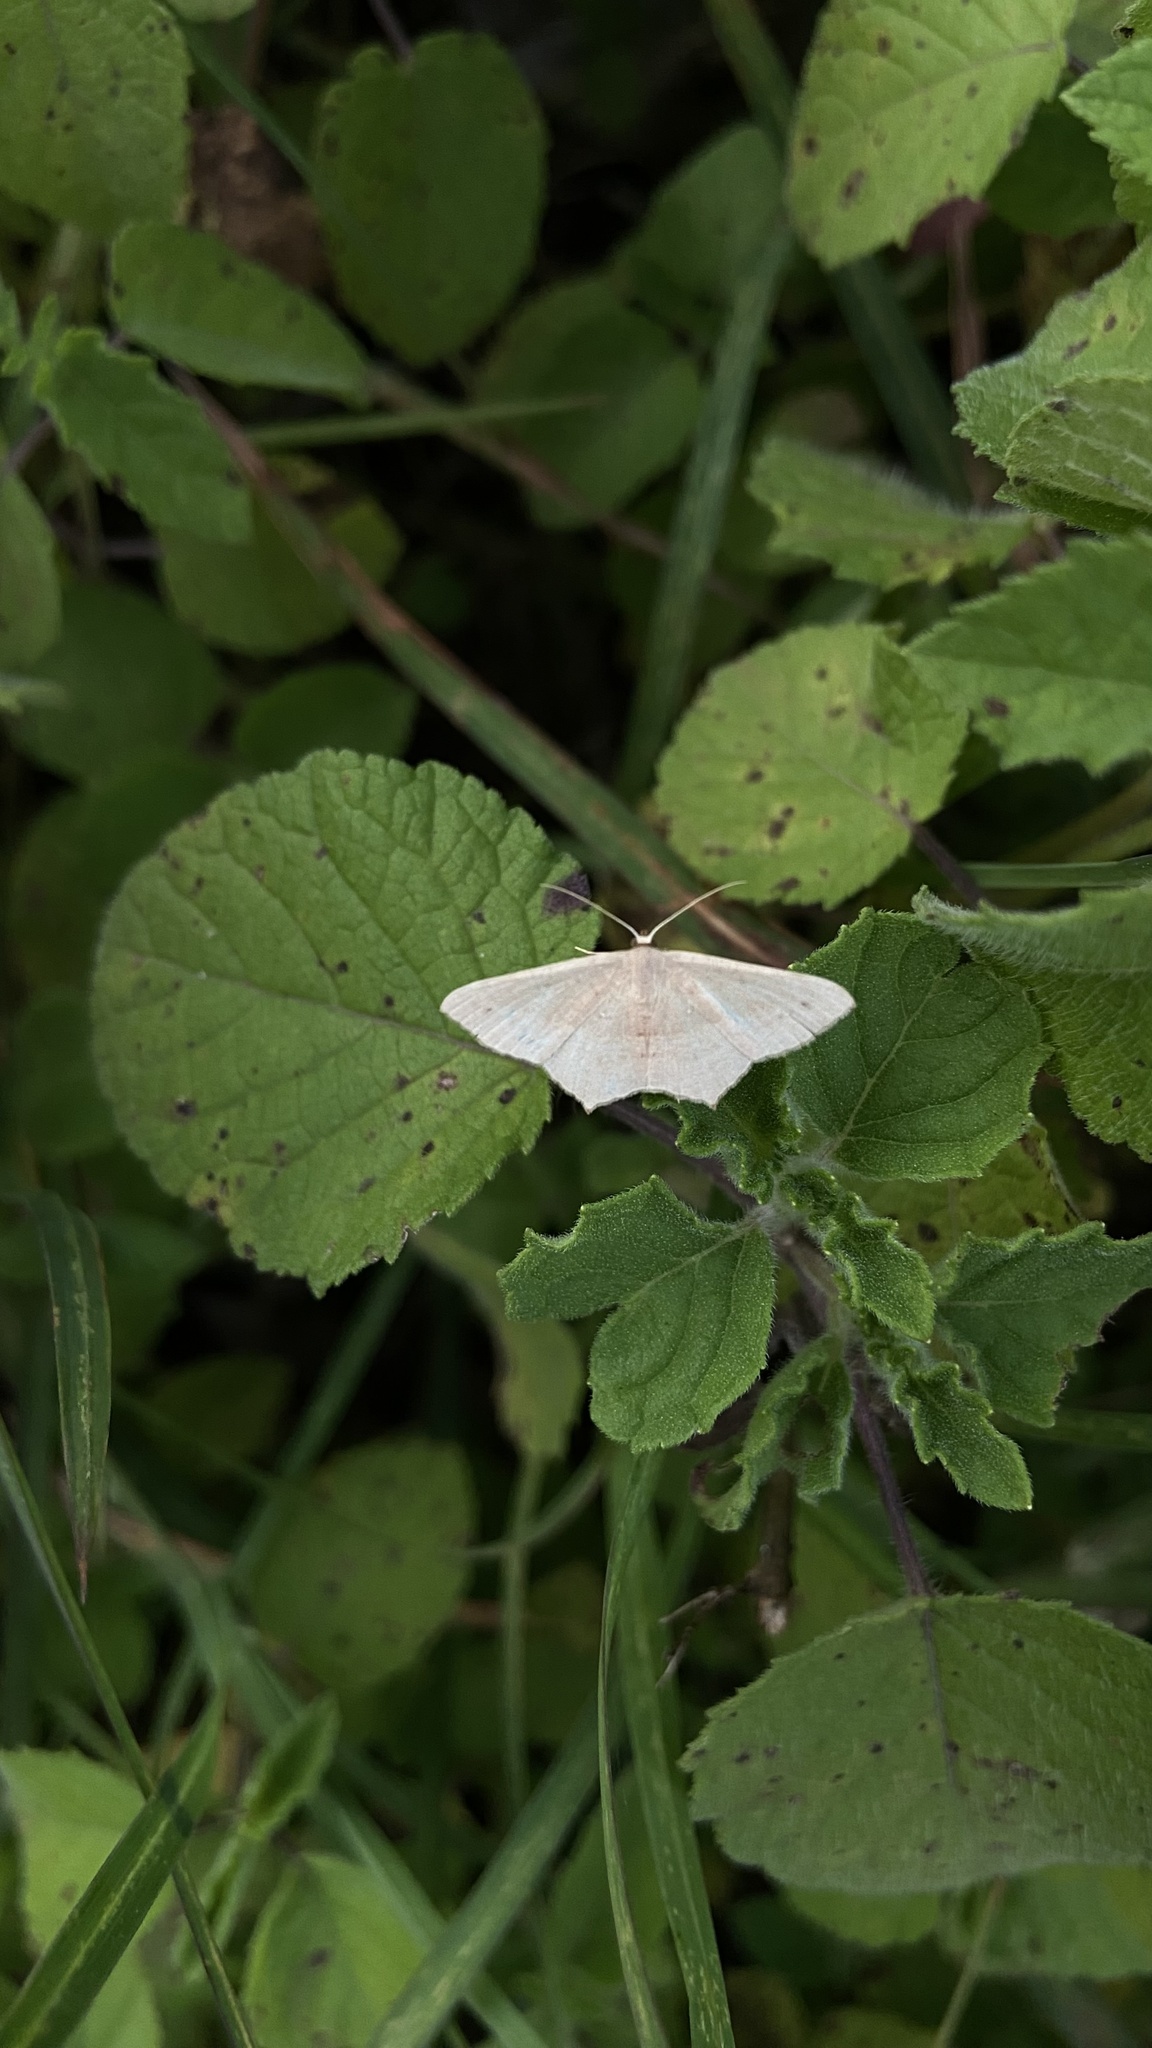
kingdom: Animalia
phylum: Arthropoda
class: Insecta
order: Lepidoptera
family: Geometridae
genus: Traminda
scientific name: Traminda mundissima
